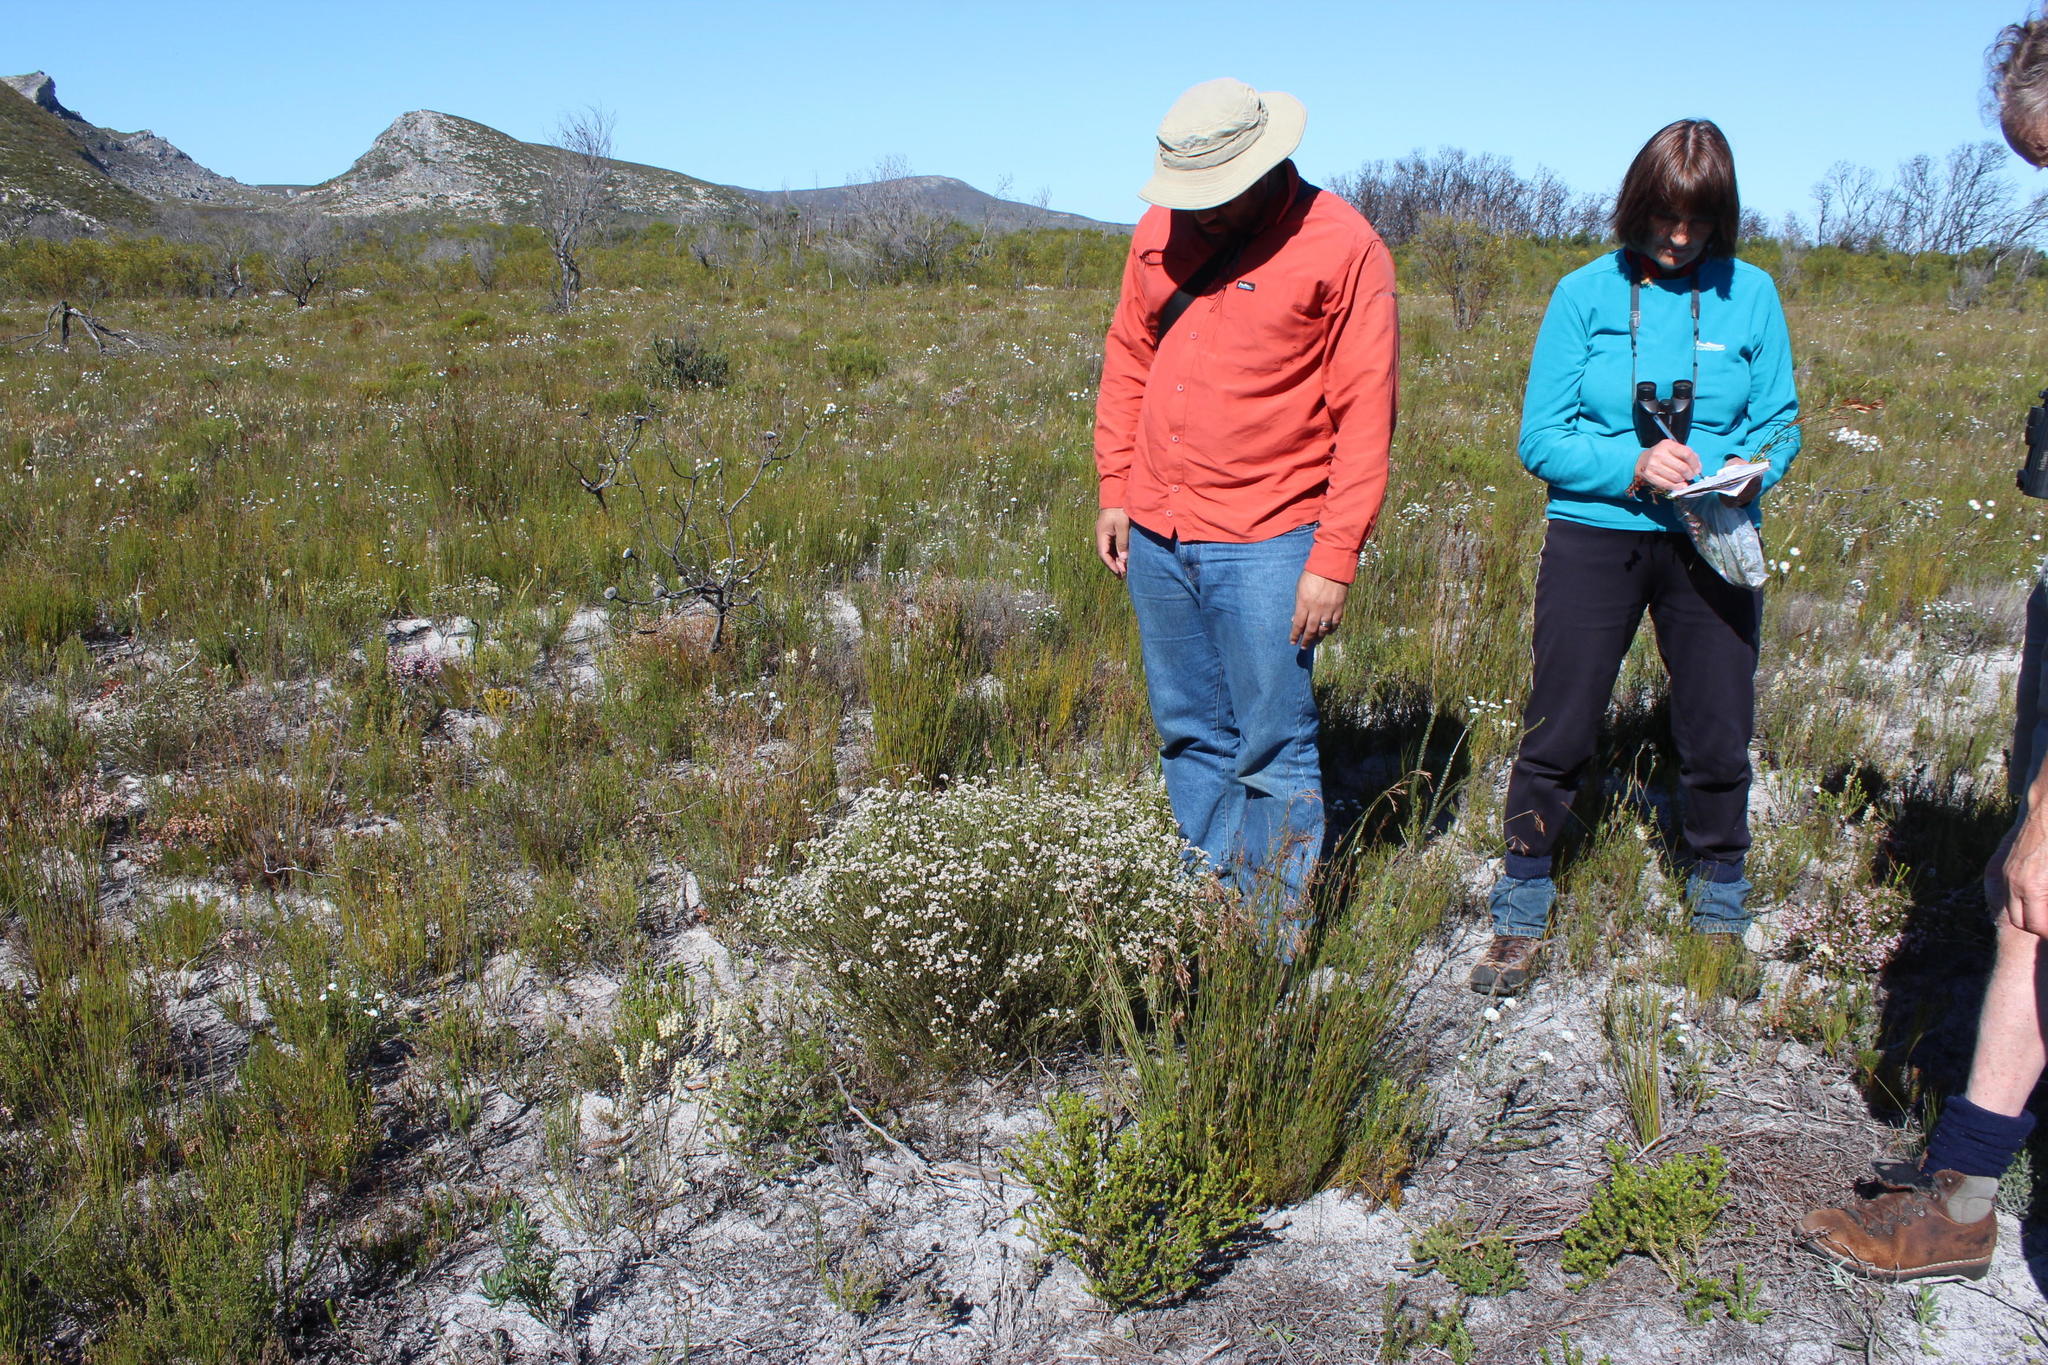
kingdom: Plantae
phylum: Tracheophyta
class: Magnoliopsida
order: Bruniales
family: Bruniaceae
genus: Staavia
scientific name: Staavia radiata
